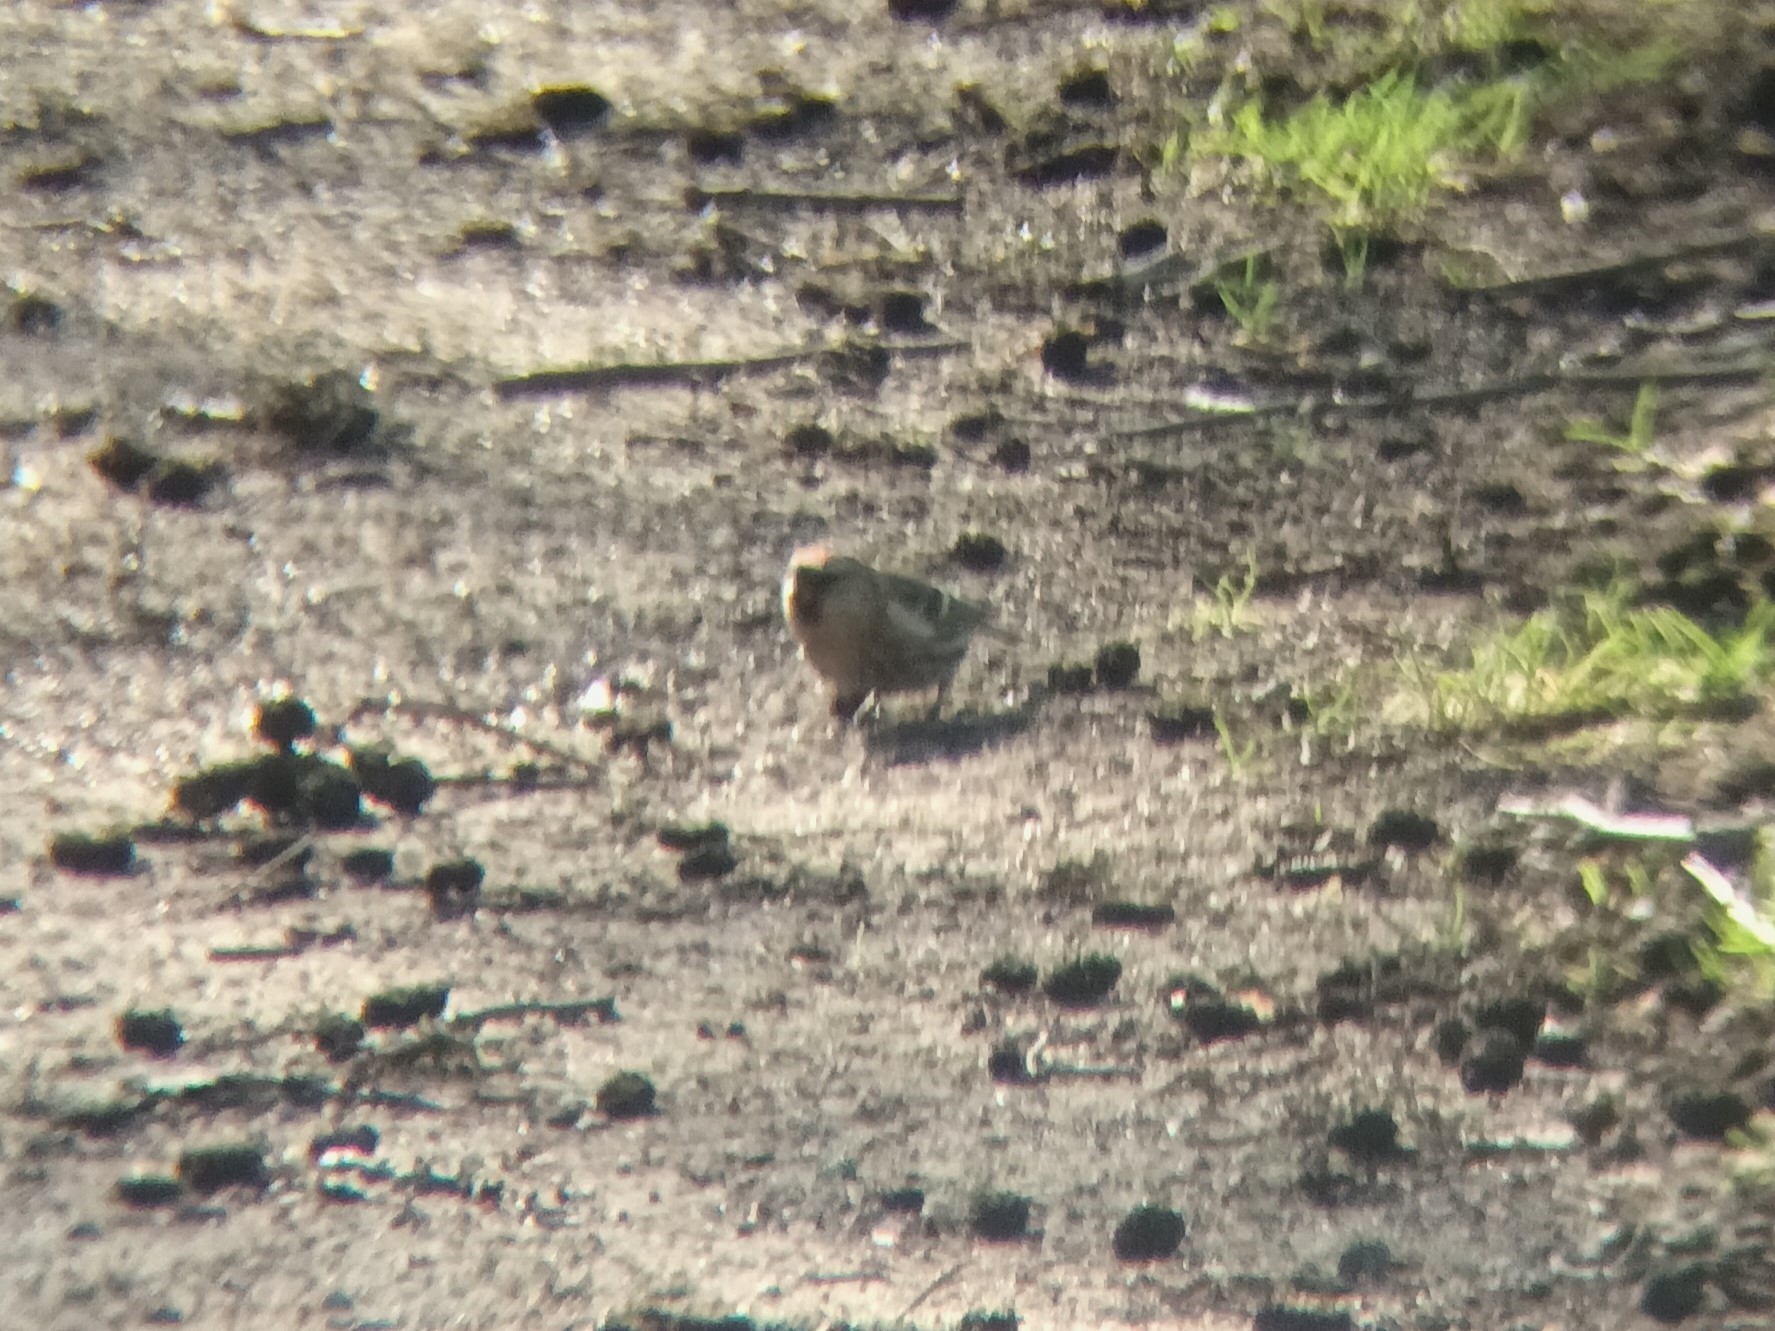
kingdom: Animalia
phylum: Chordata
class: Aves
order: Passeriformes
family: Fringillidae
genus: Acanthis
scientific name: Acanthis flammea
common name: Common redpoll
